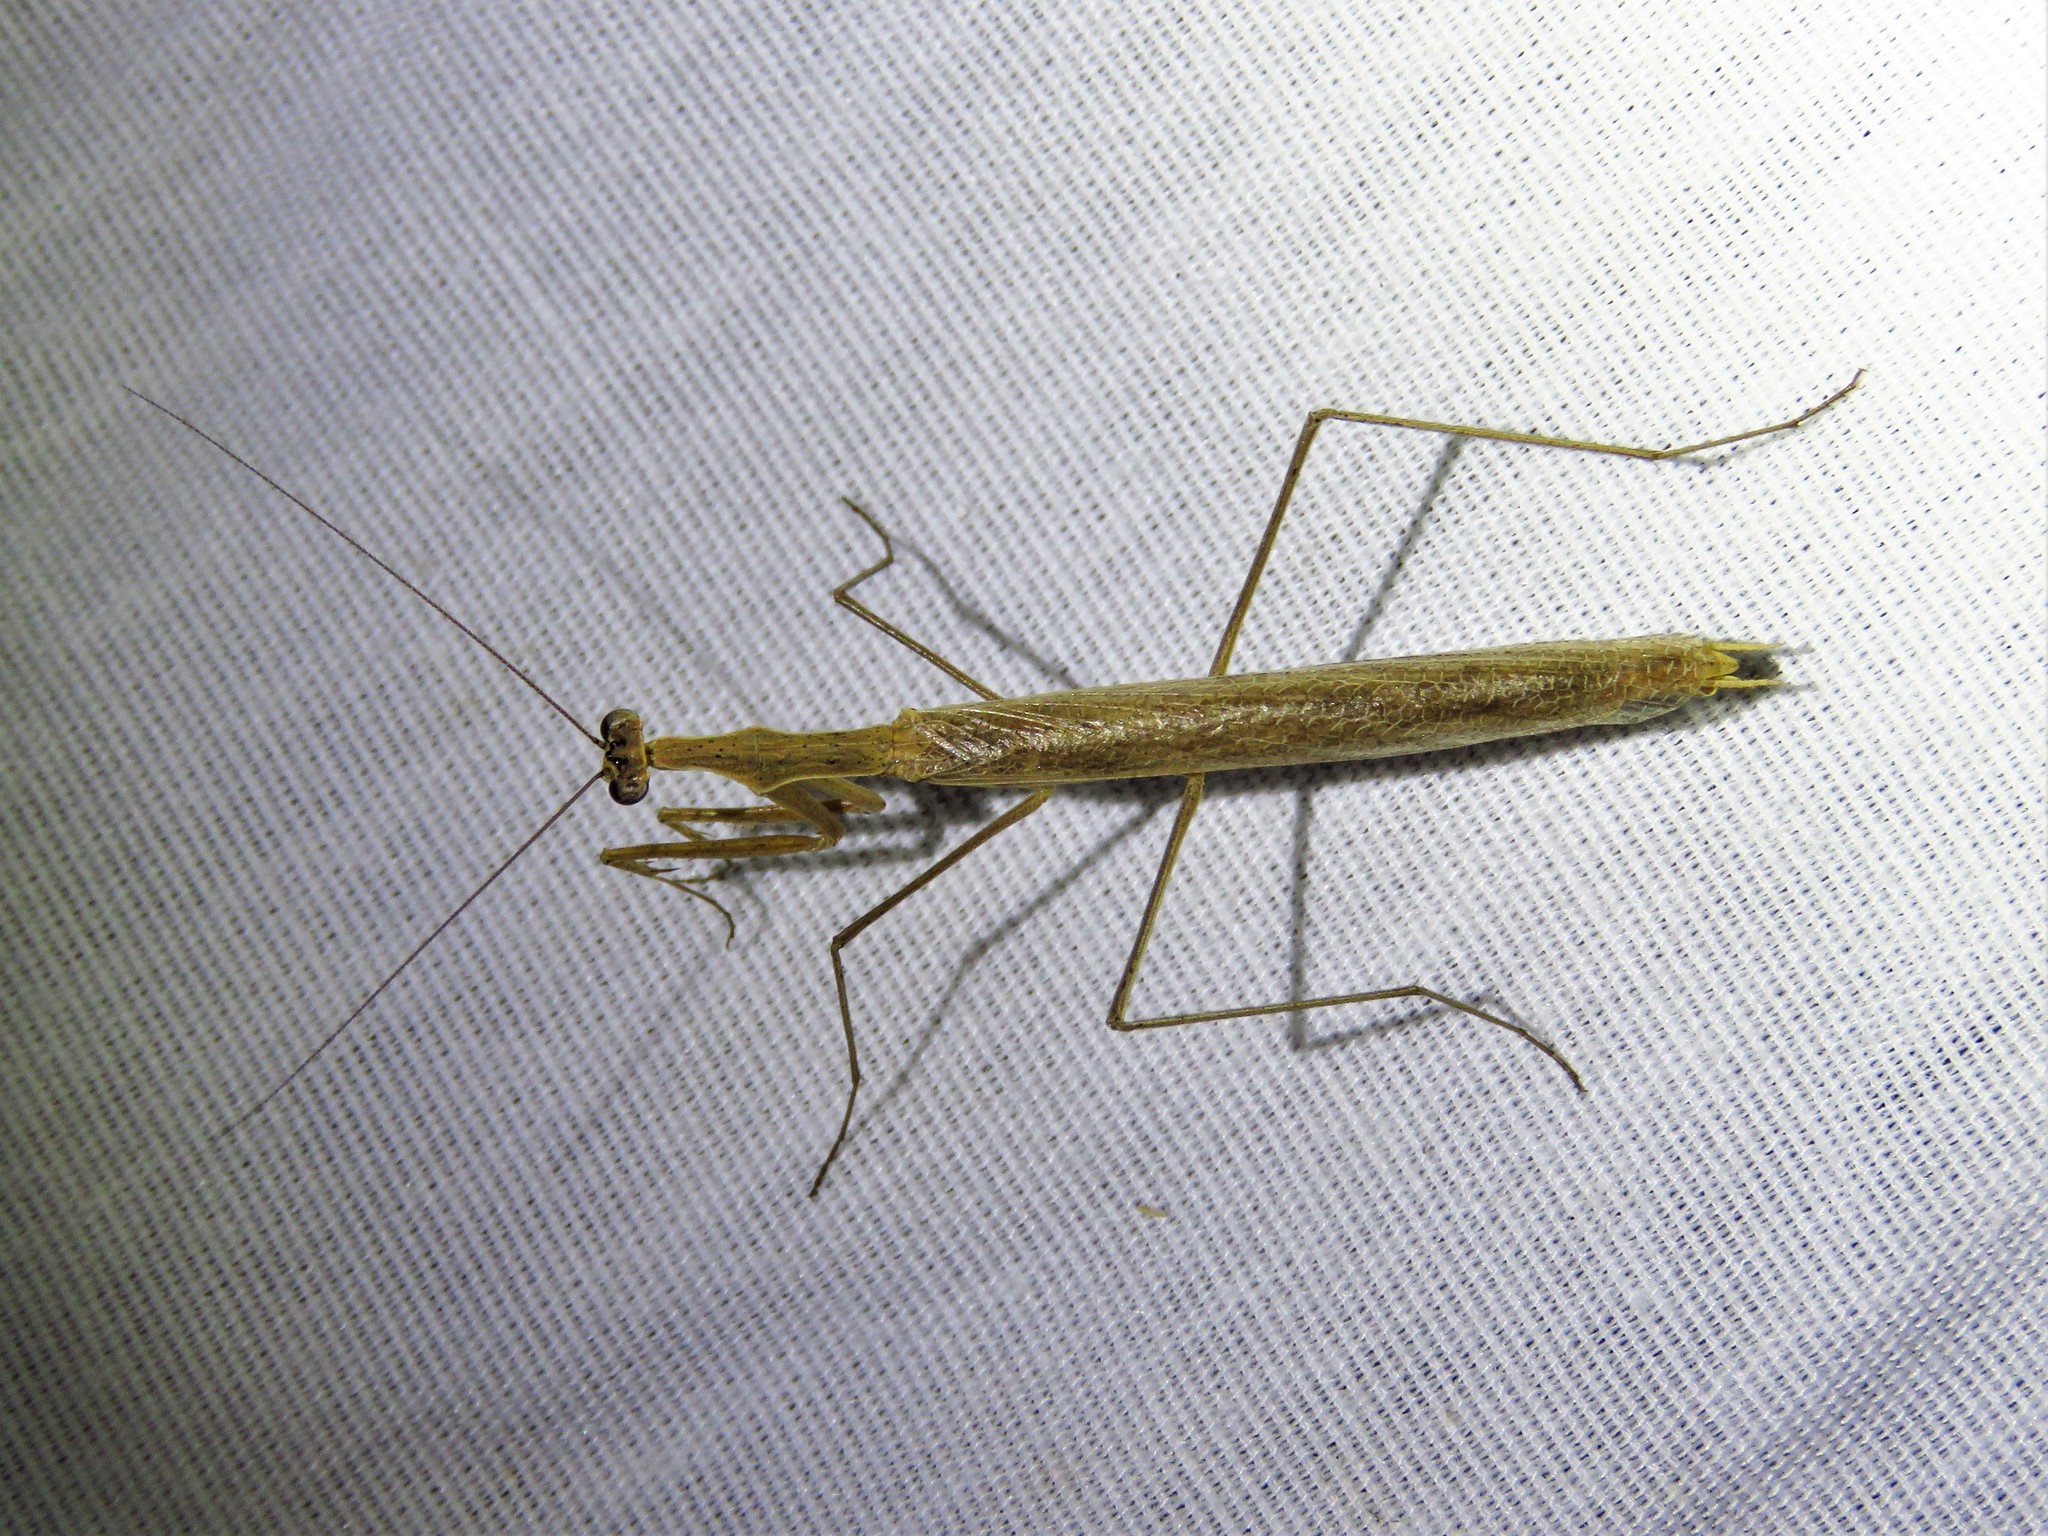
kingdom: Animalia
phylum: Arthropoda
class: Insecta
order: Mantodea
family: Thespidae
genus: Oligonicella
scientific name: Oligonicella scudderi
